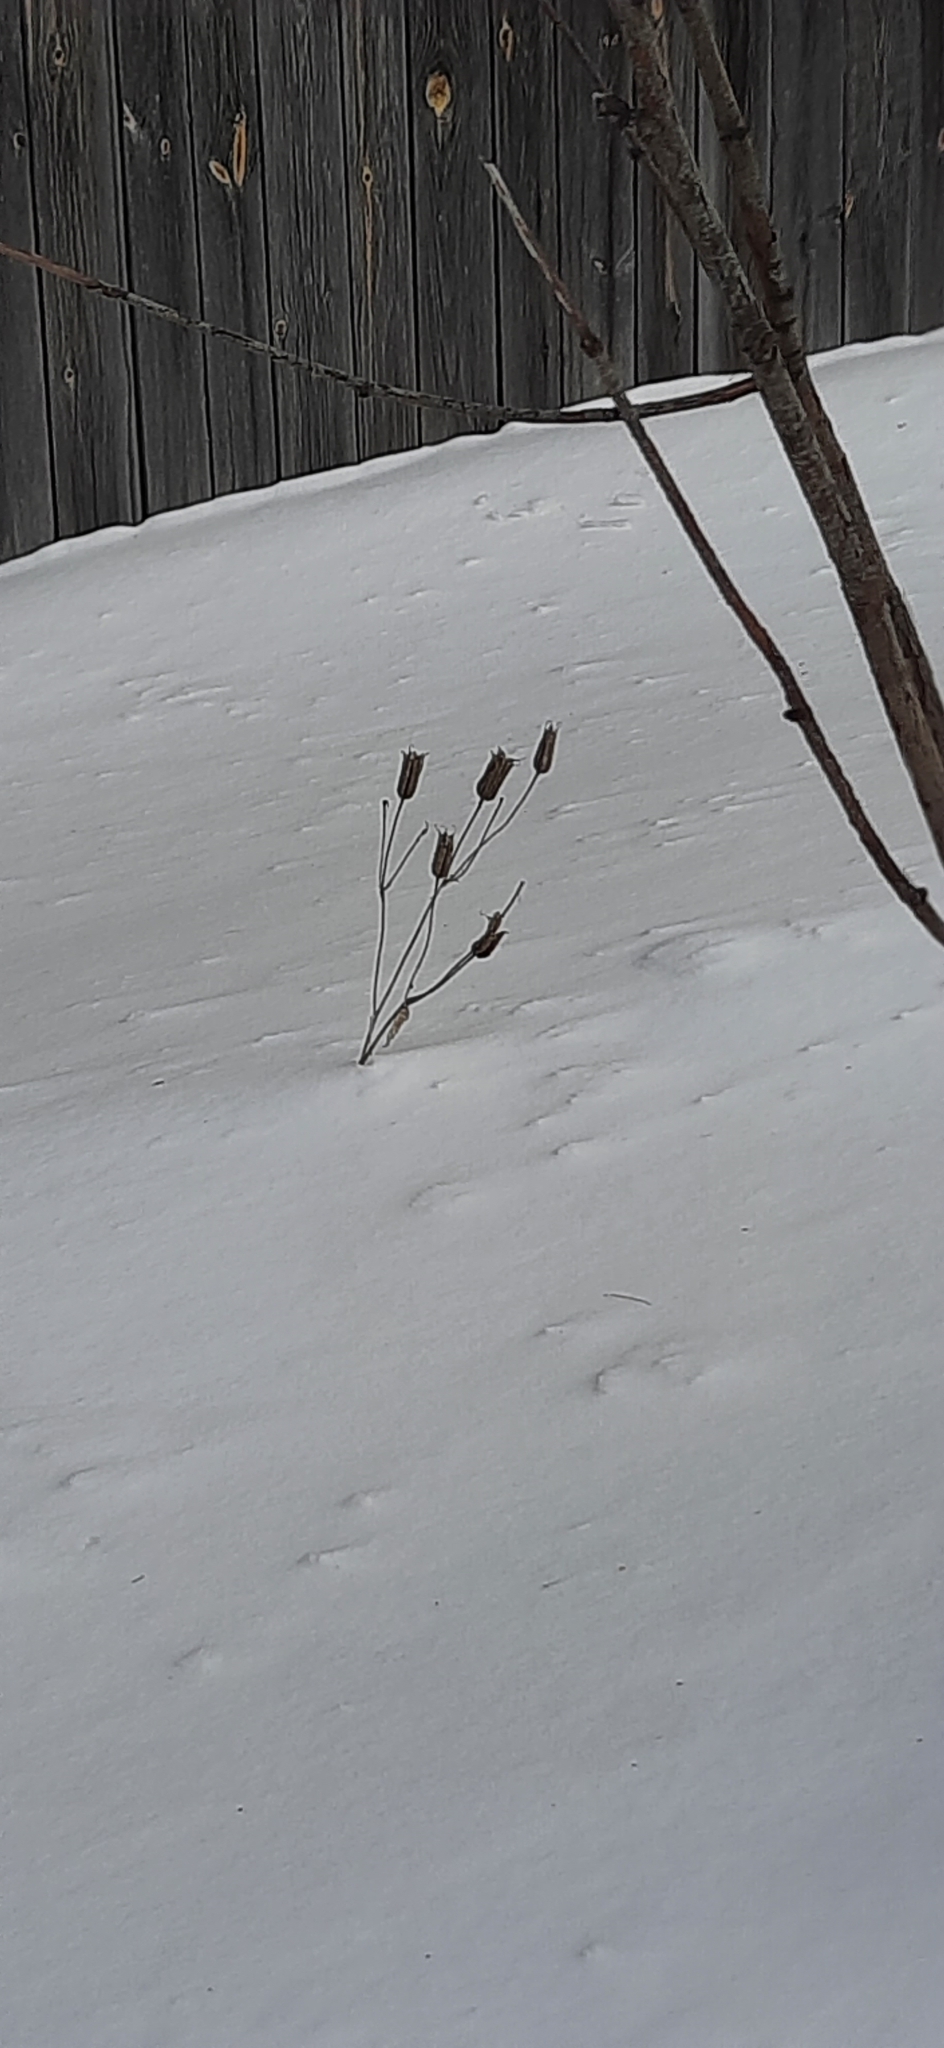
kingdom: Plantae
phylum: Tracheophyta
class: Magnoliopsida
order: Ranunculales
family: Ranunculaceae
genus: Aquilegia
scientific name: Aquilegia vulgaris
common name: Columbine
